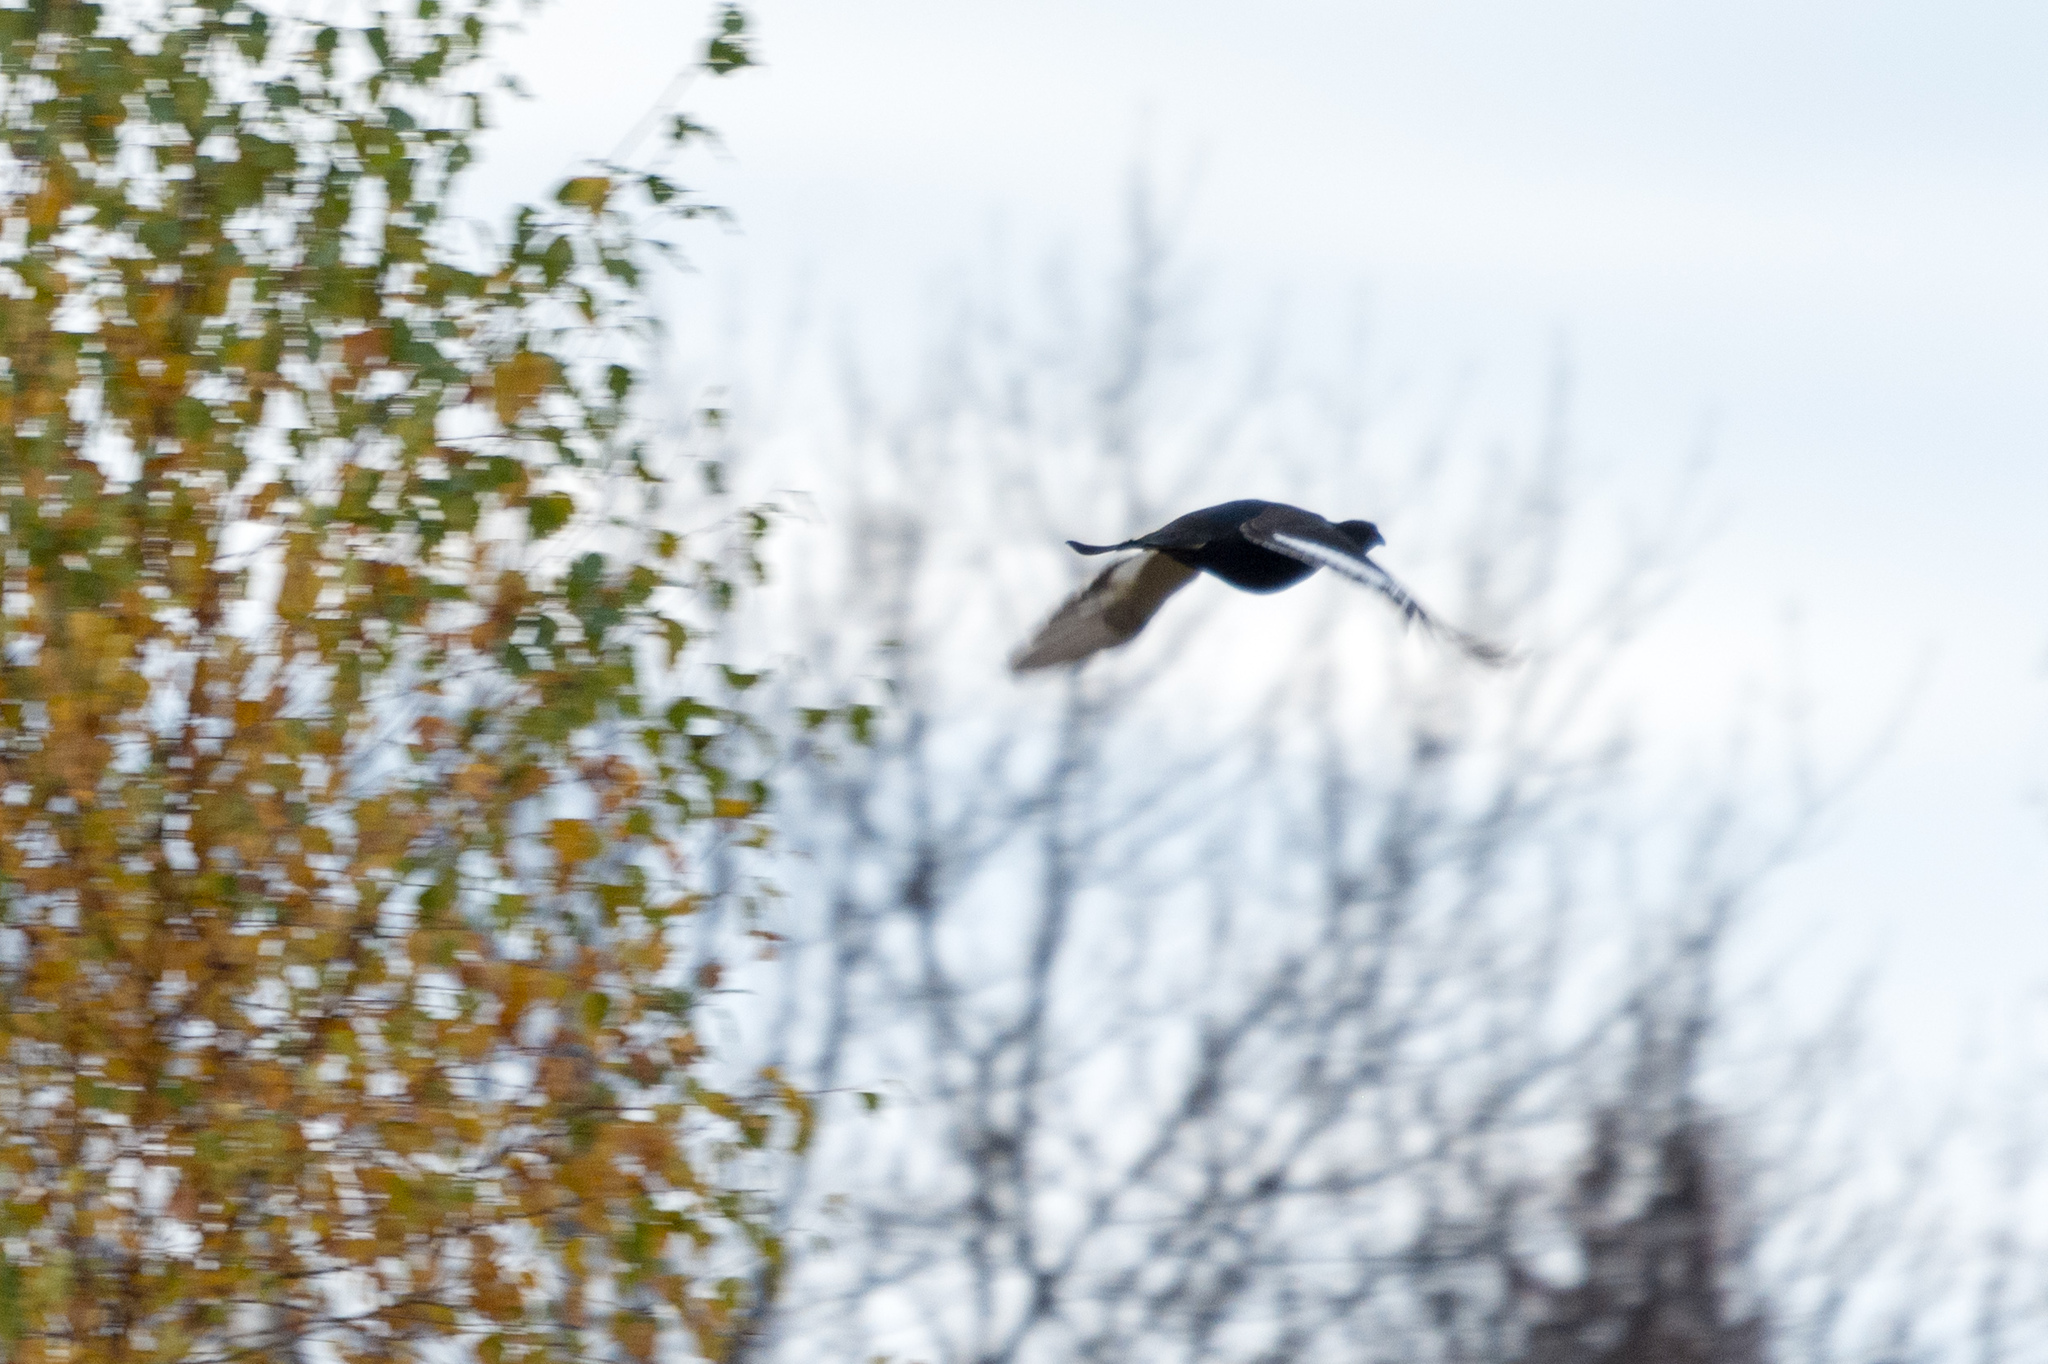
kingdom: Animalia
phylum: Chordata
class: Aves
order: Galliformes
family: Phasianidae
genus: Lyrurus
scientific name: Lyrurus tetrix
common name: Black grouse
